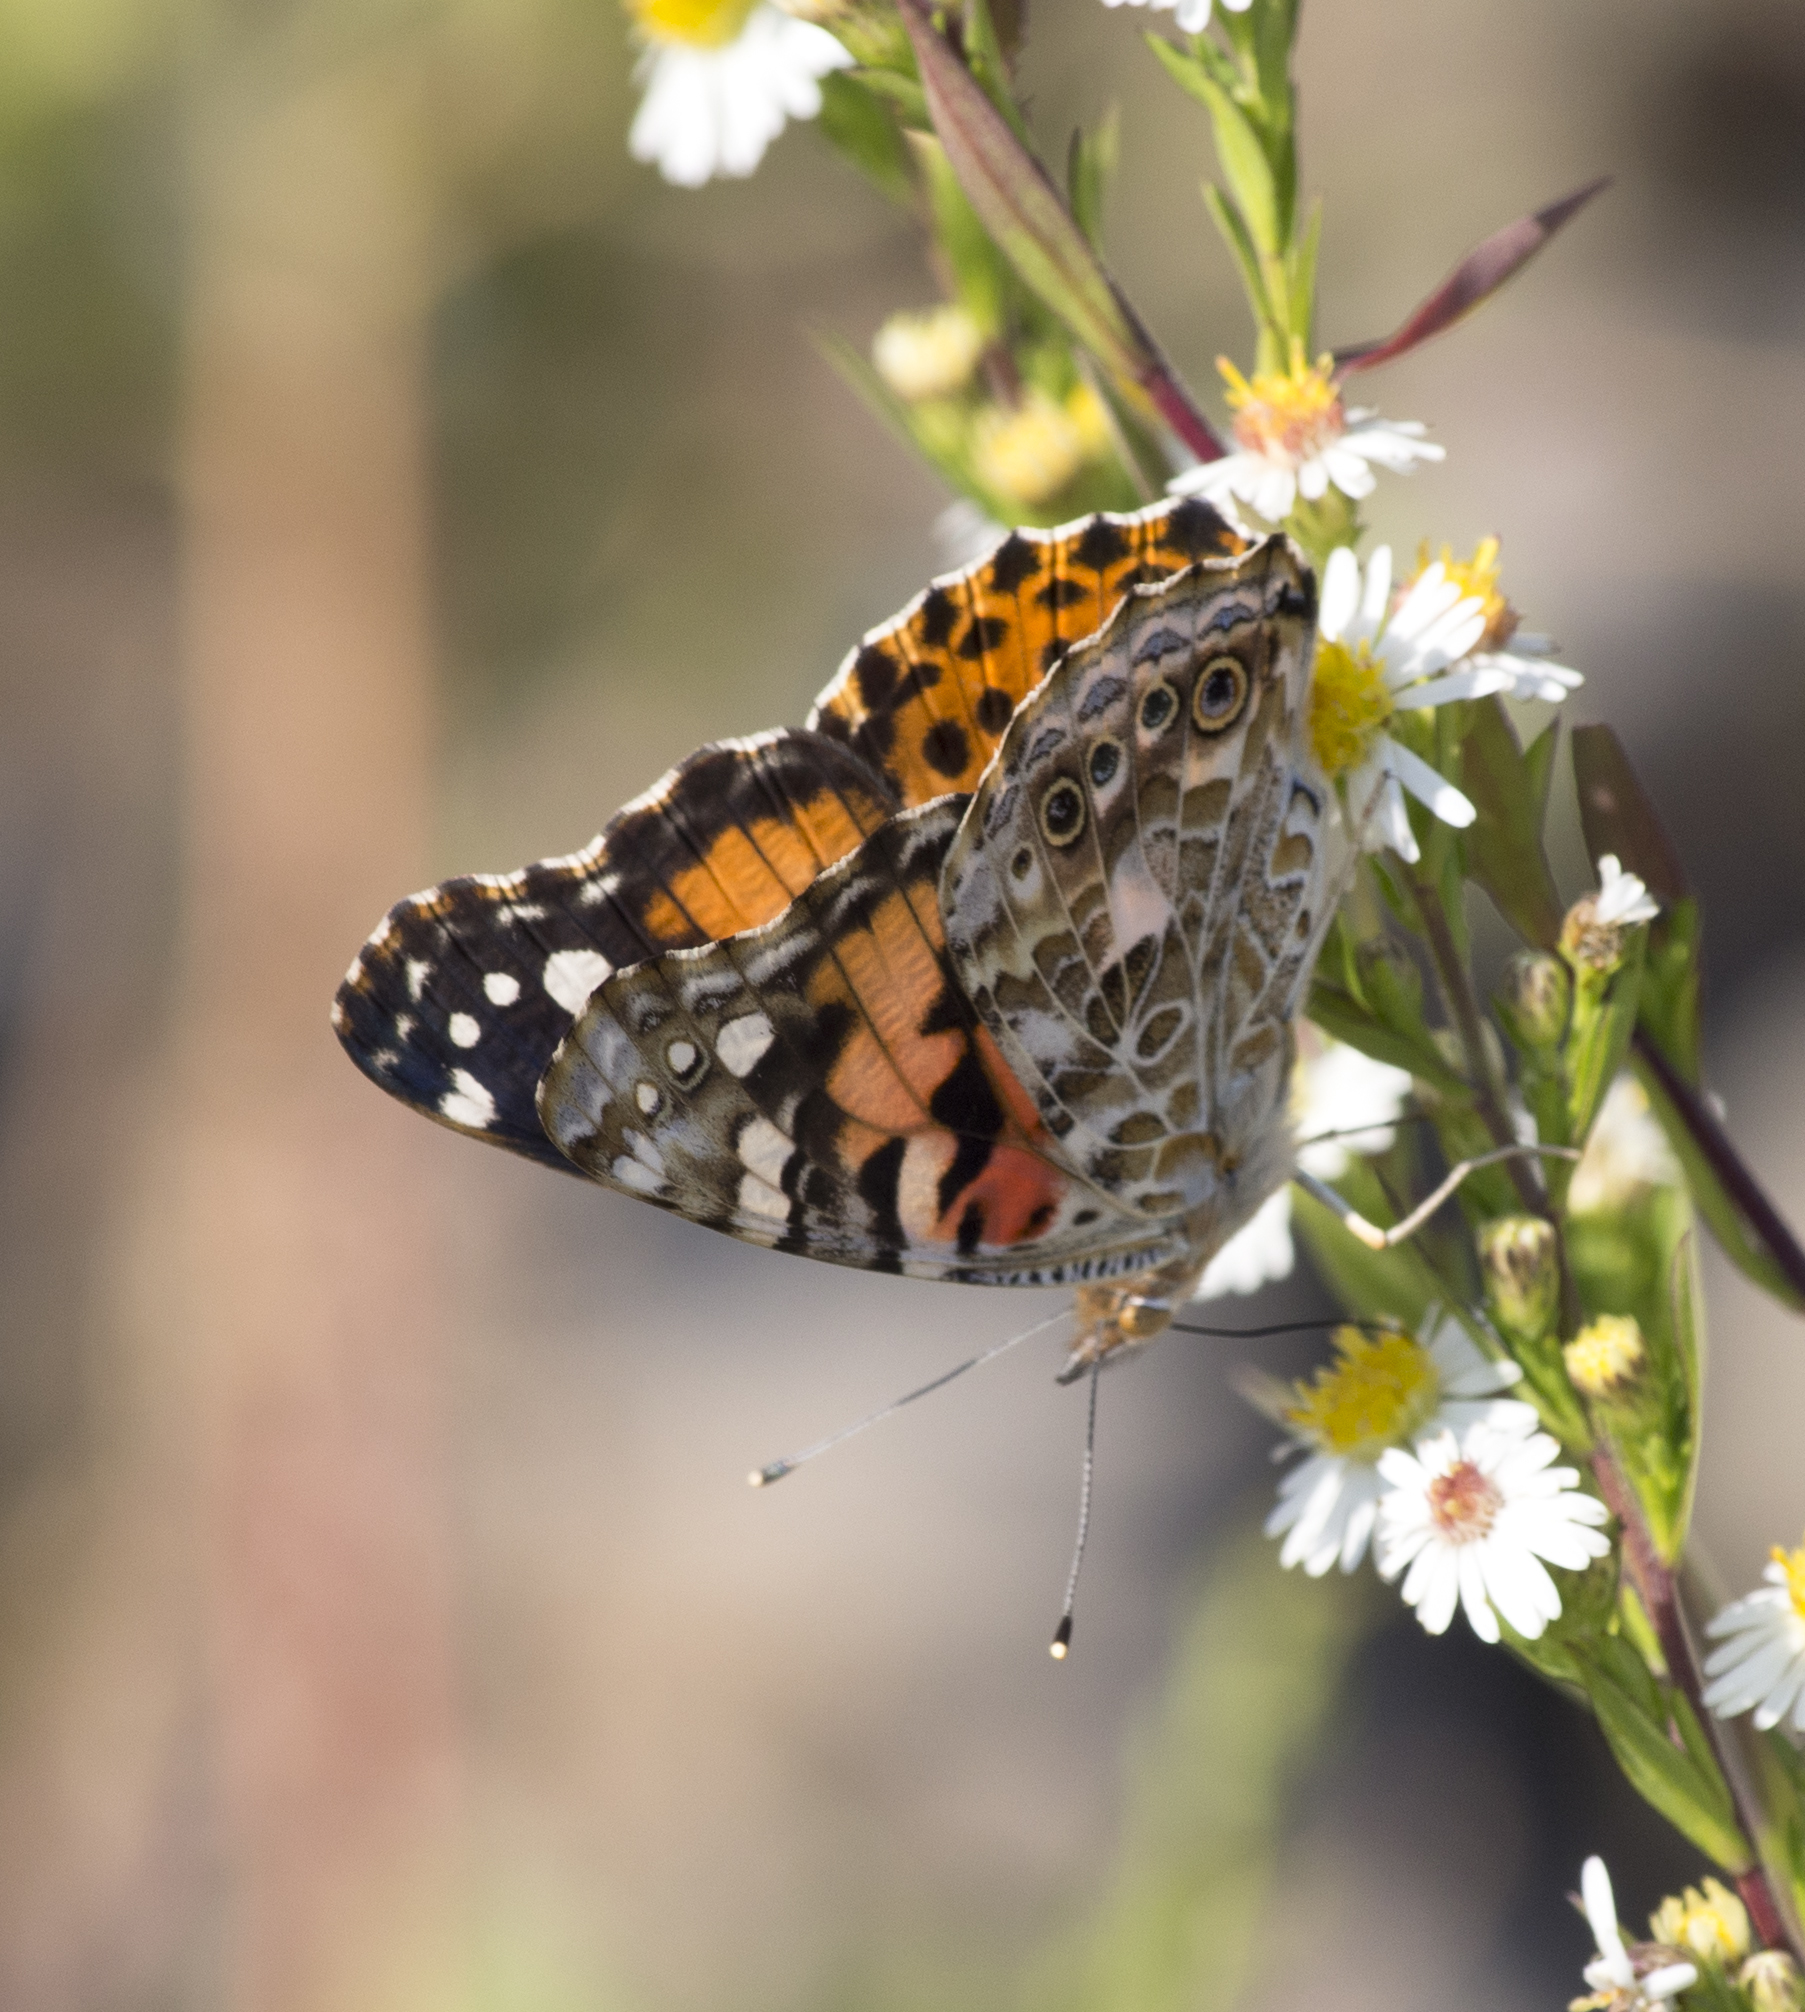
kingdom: Animalia
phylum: Arthropoda
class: Insecta
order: Lepidoptera
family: Nymphalidae
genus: Vanessa
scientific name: Vanessa cardui
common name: Painted lady
